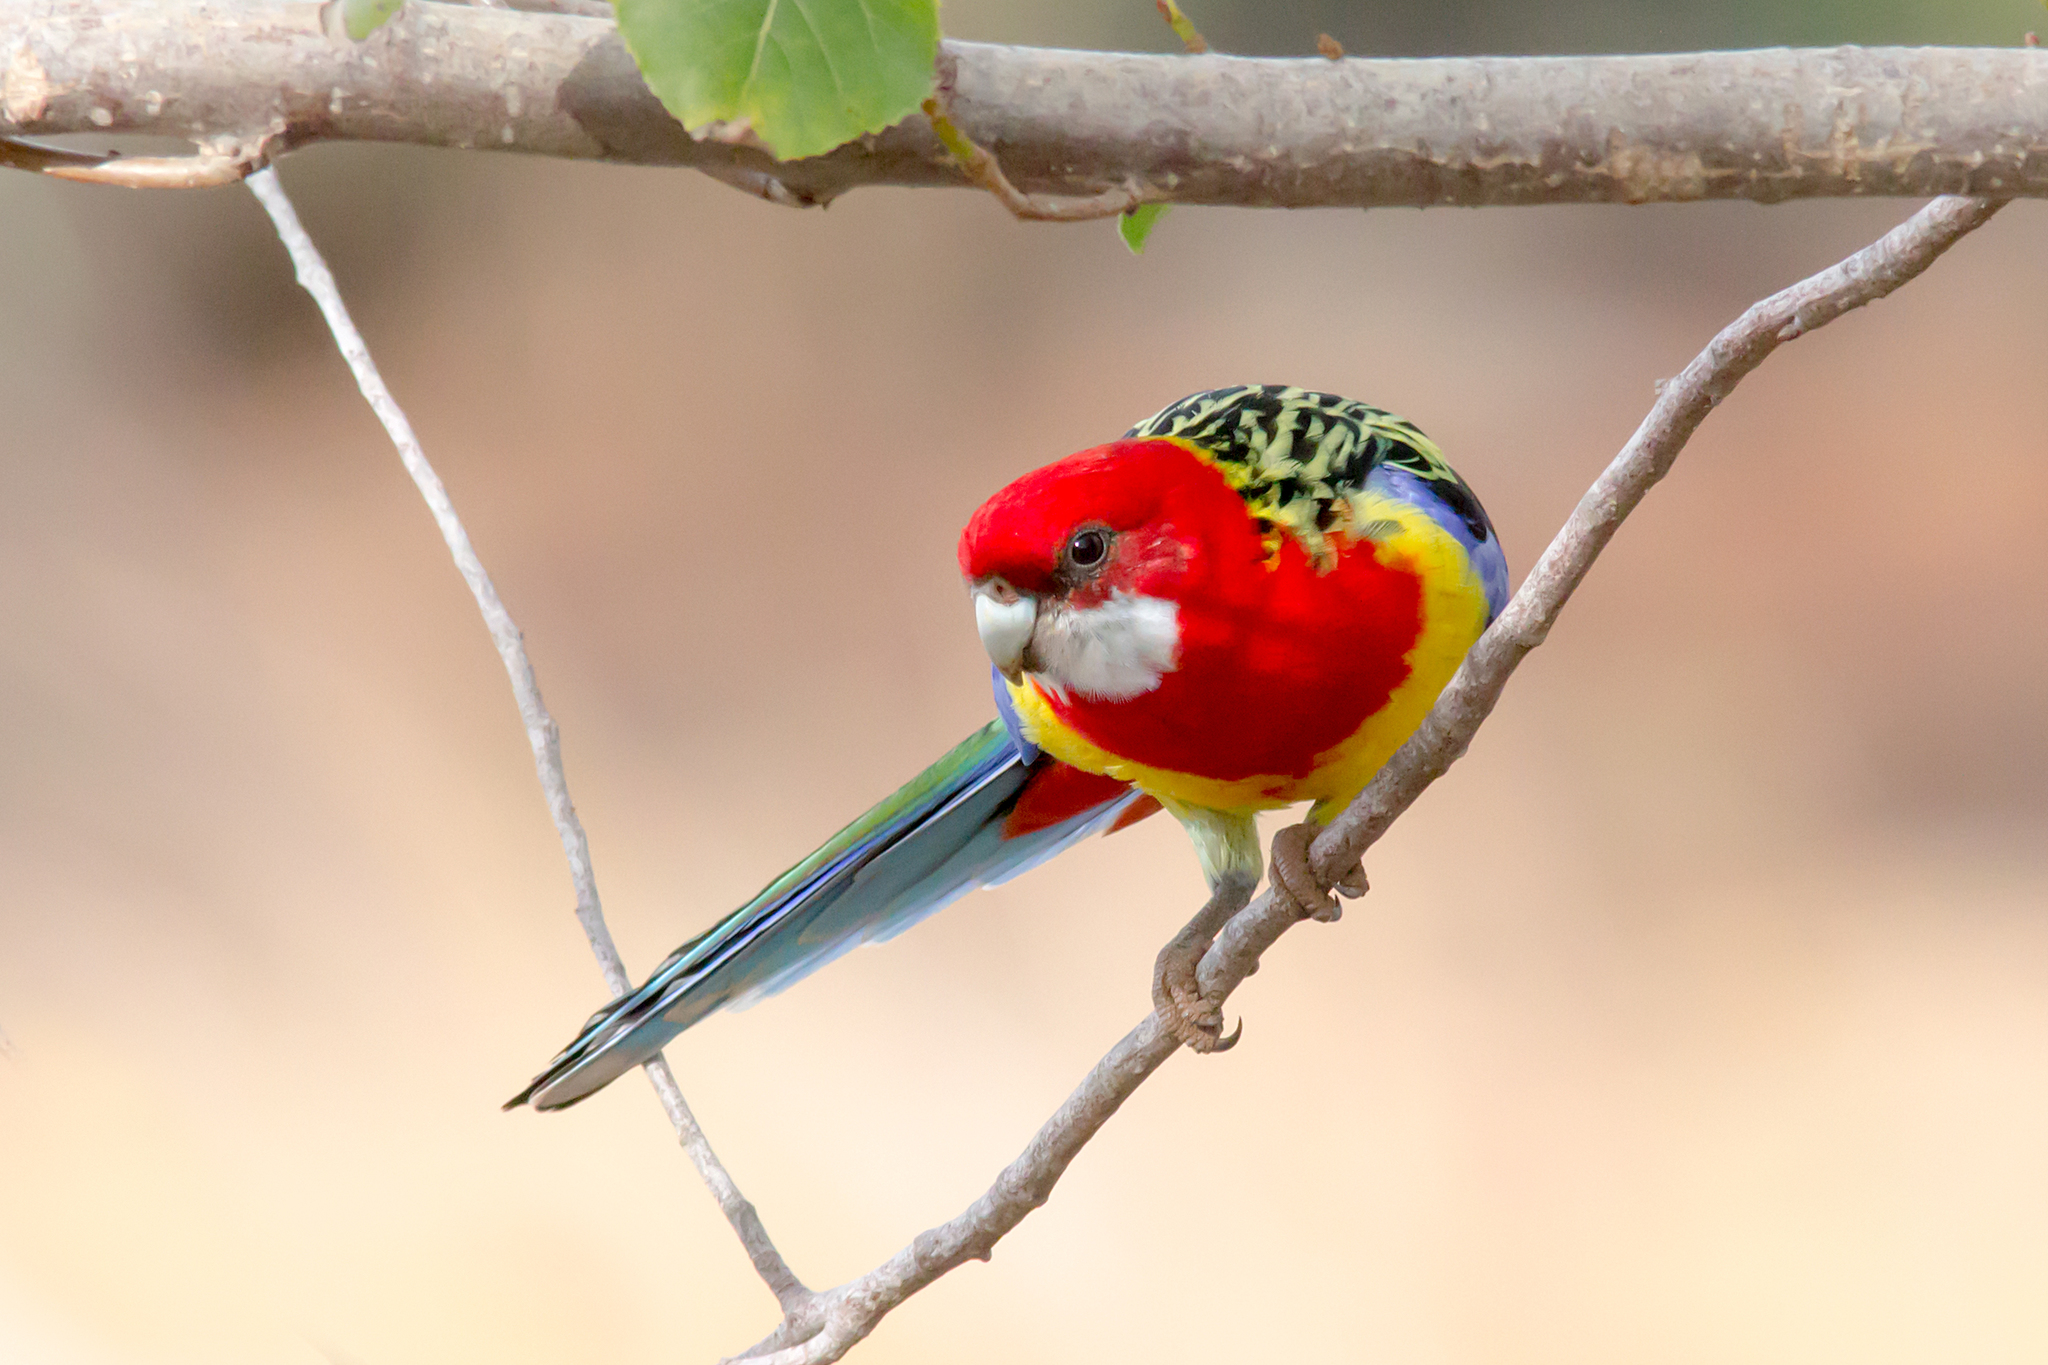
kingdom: Animalia
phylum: Chordata
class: Aves
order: Psittaciformes
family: Psittacidae
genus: Platycercus
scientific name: Platycercus eximius
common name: Eastern rosella
